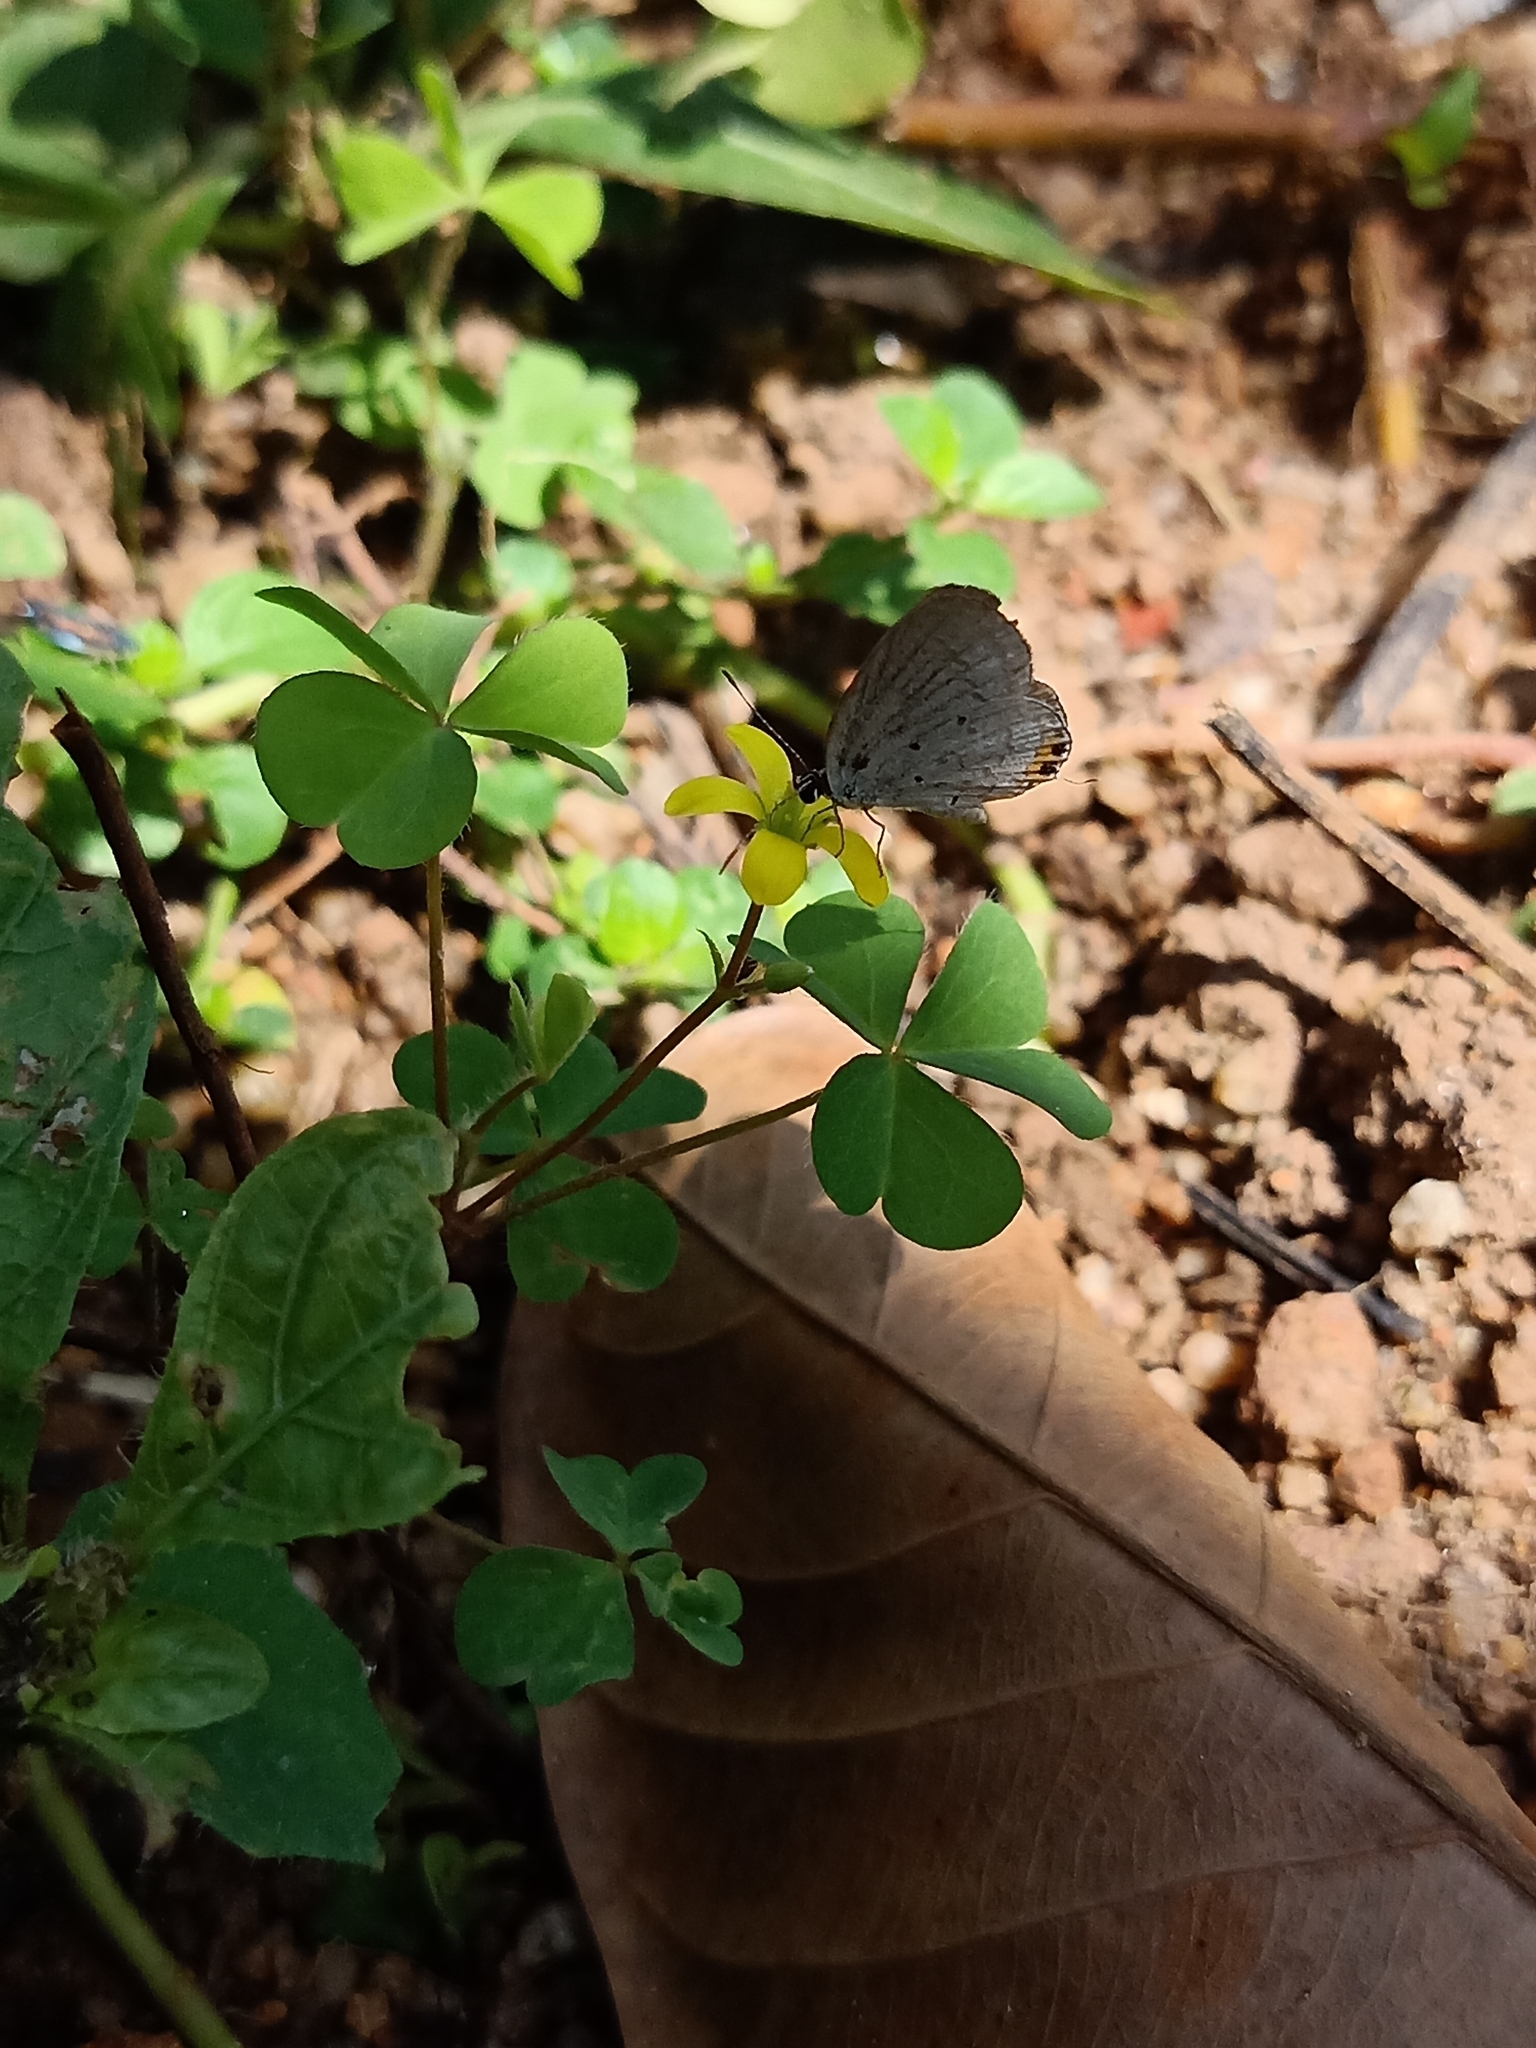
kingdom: Animalia
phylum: Arthropoda
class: Insecta
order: Lepidoptera
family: Lycaenidae
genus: Castalius
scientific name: Castalius rosimon
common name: Common pierrot
